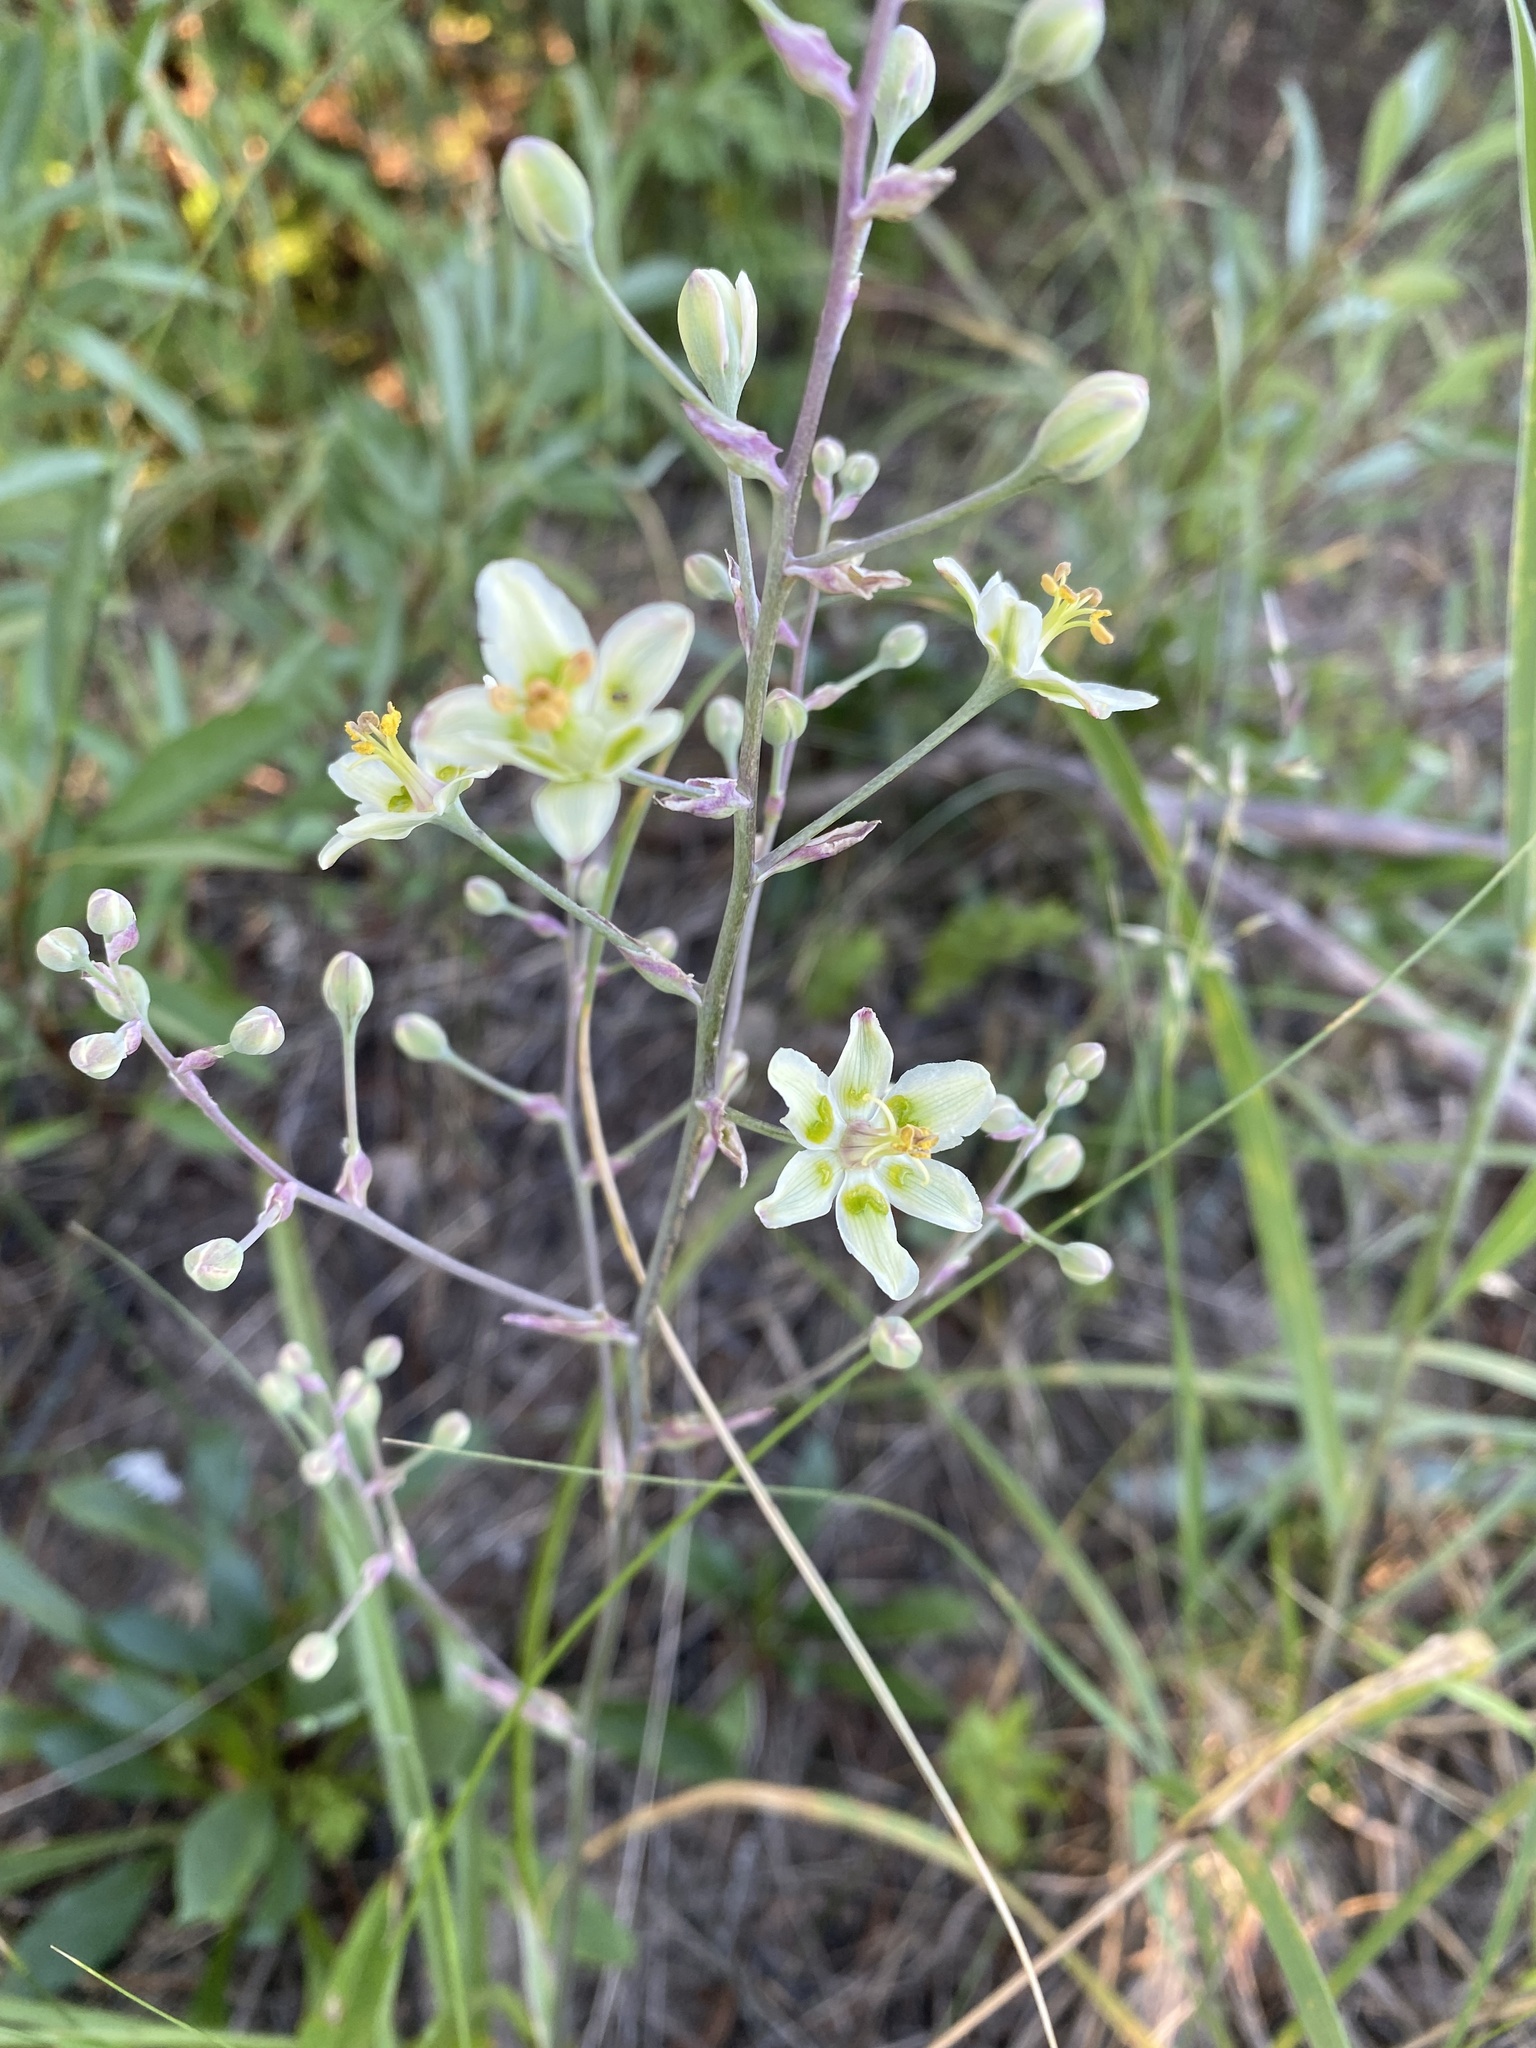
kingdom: Plantae
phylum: Tracheophyta
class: Liliopsida
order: Liliales
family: Melanthiaceae
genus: Anticlea
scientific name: Anticlea elegans
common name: Mountain death camas
